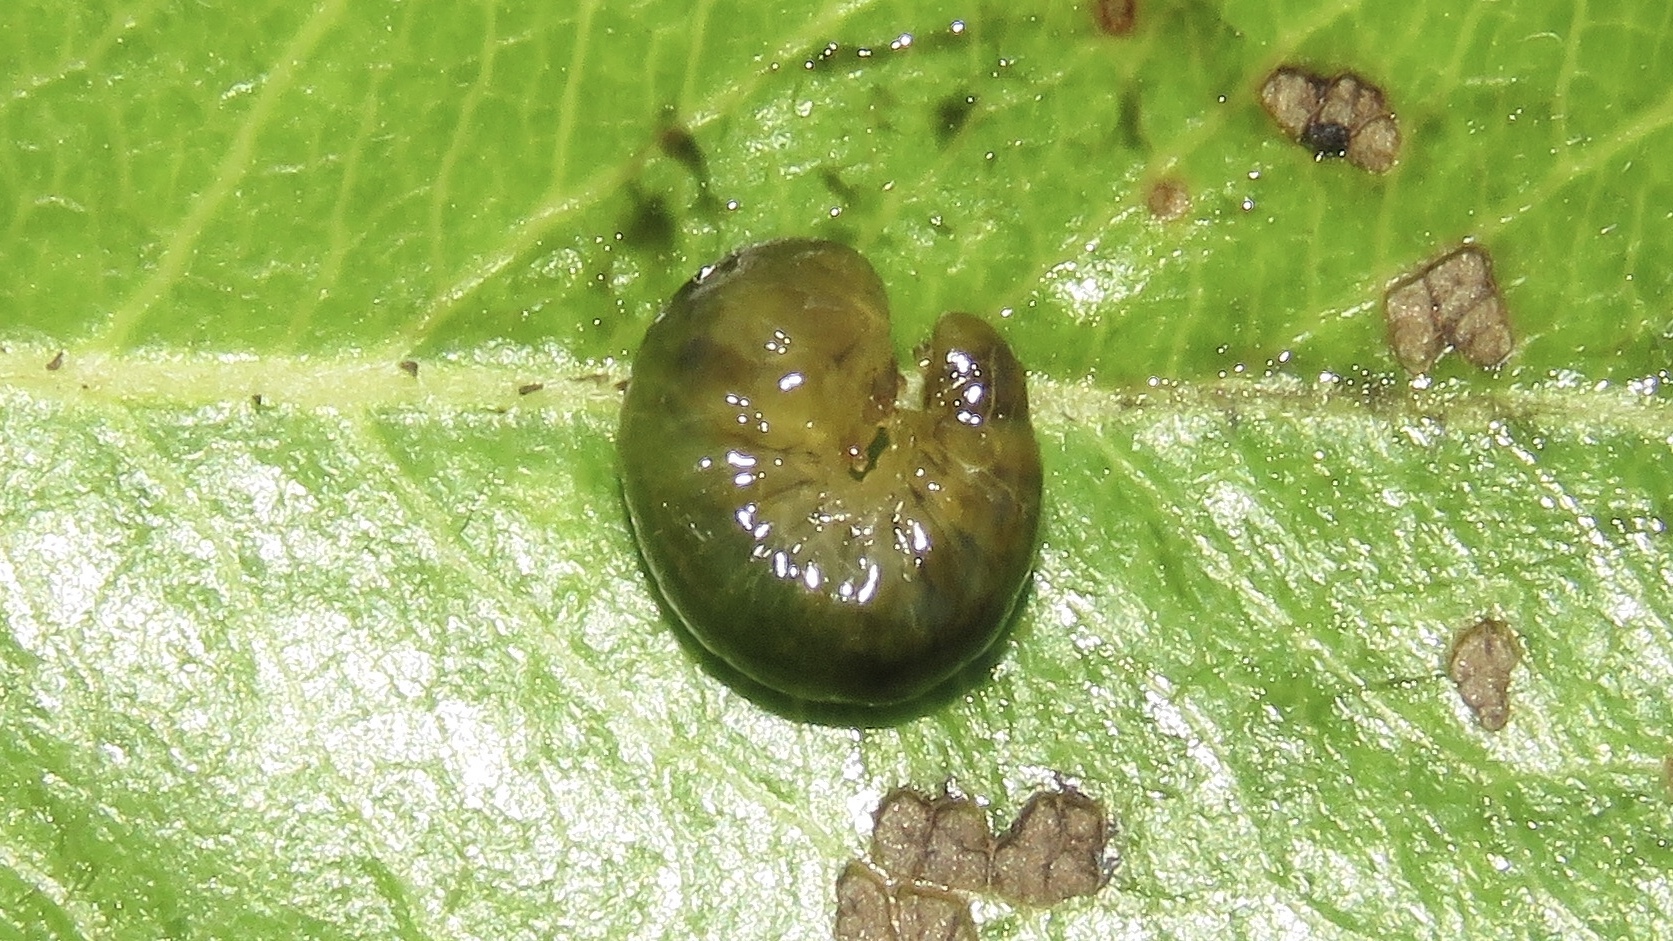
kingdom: Animalia
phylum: Arthropoda
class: Insecta
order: Hymenoptera
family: Tenthredinidae
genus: Caliroa
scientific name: Caliroa cerasi
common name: Pear sawfly
